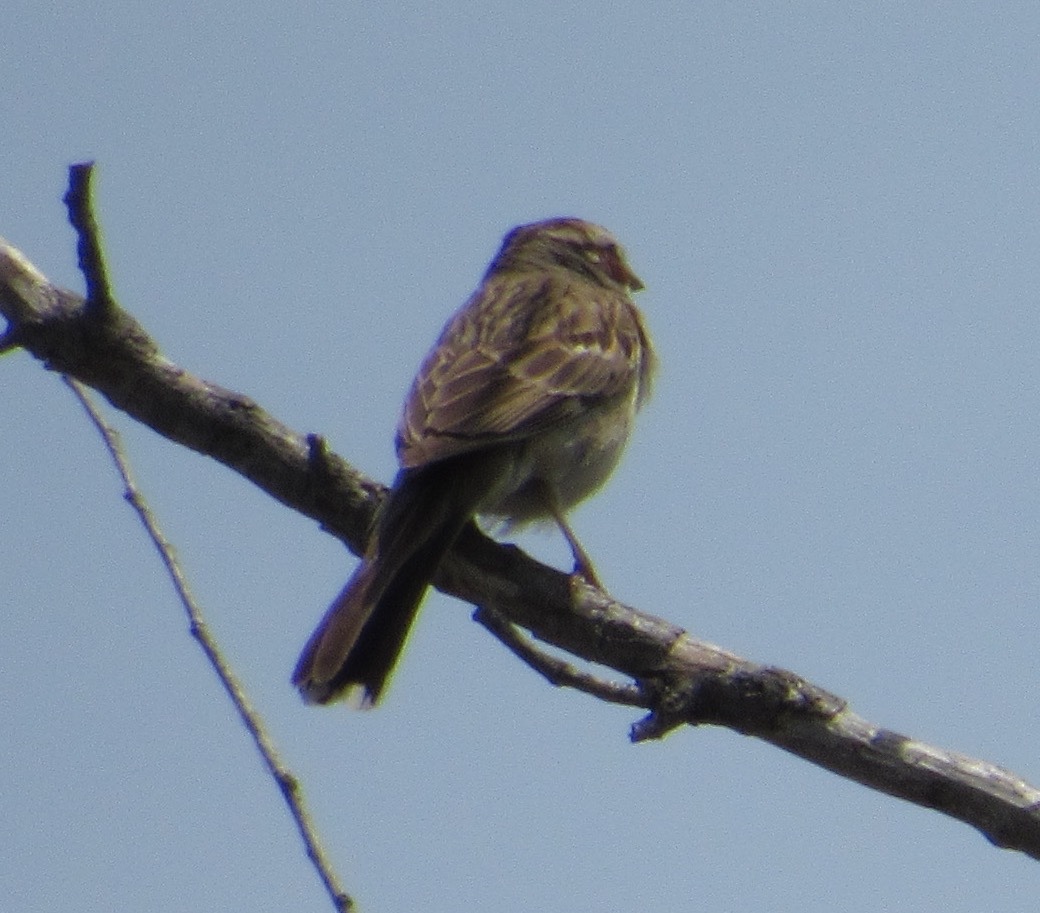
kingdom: Animalia
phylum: Chordata
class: Aves
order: Passeriformes
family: Passerellidae
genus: Chondestes
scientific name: Chondestes grammacus
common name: Lark sparrow
